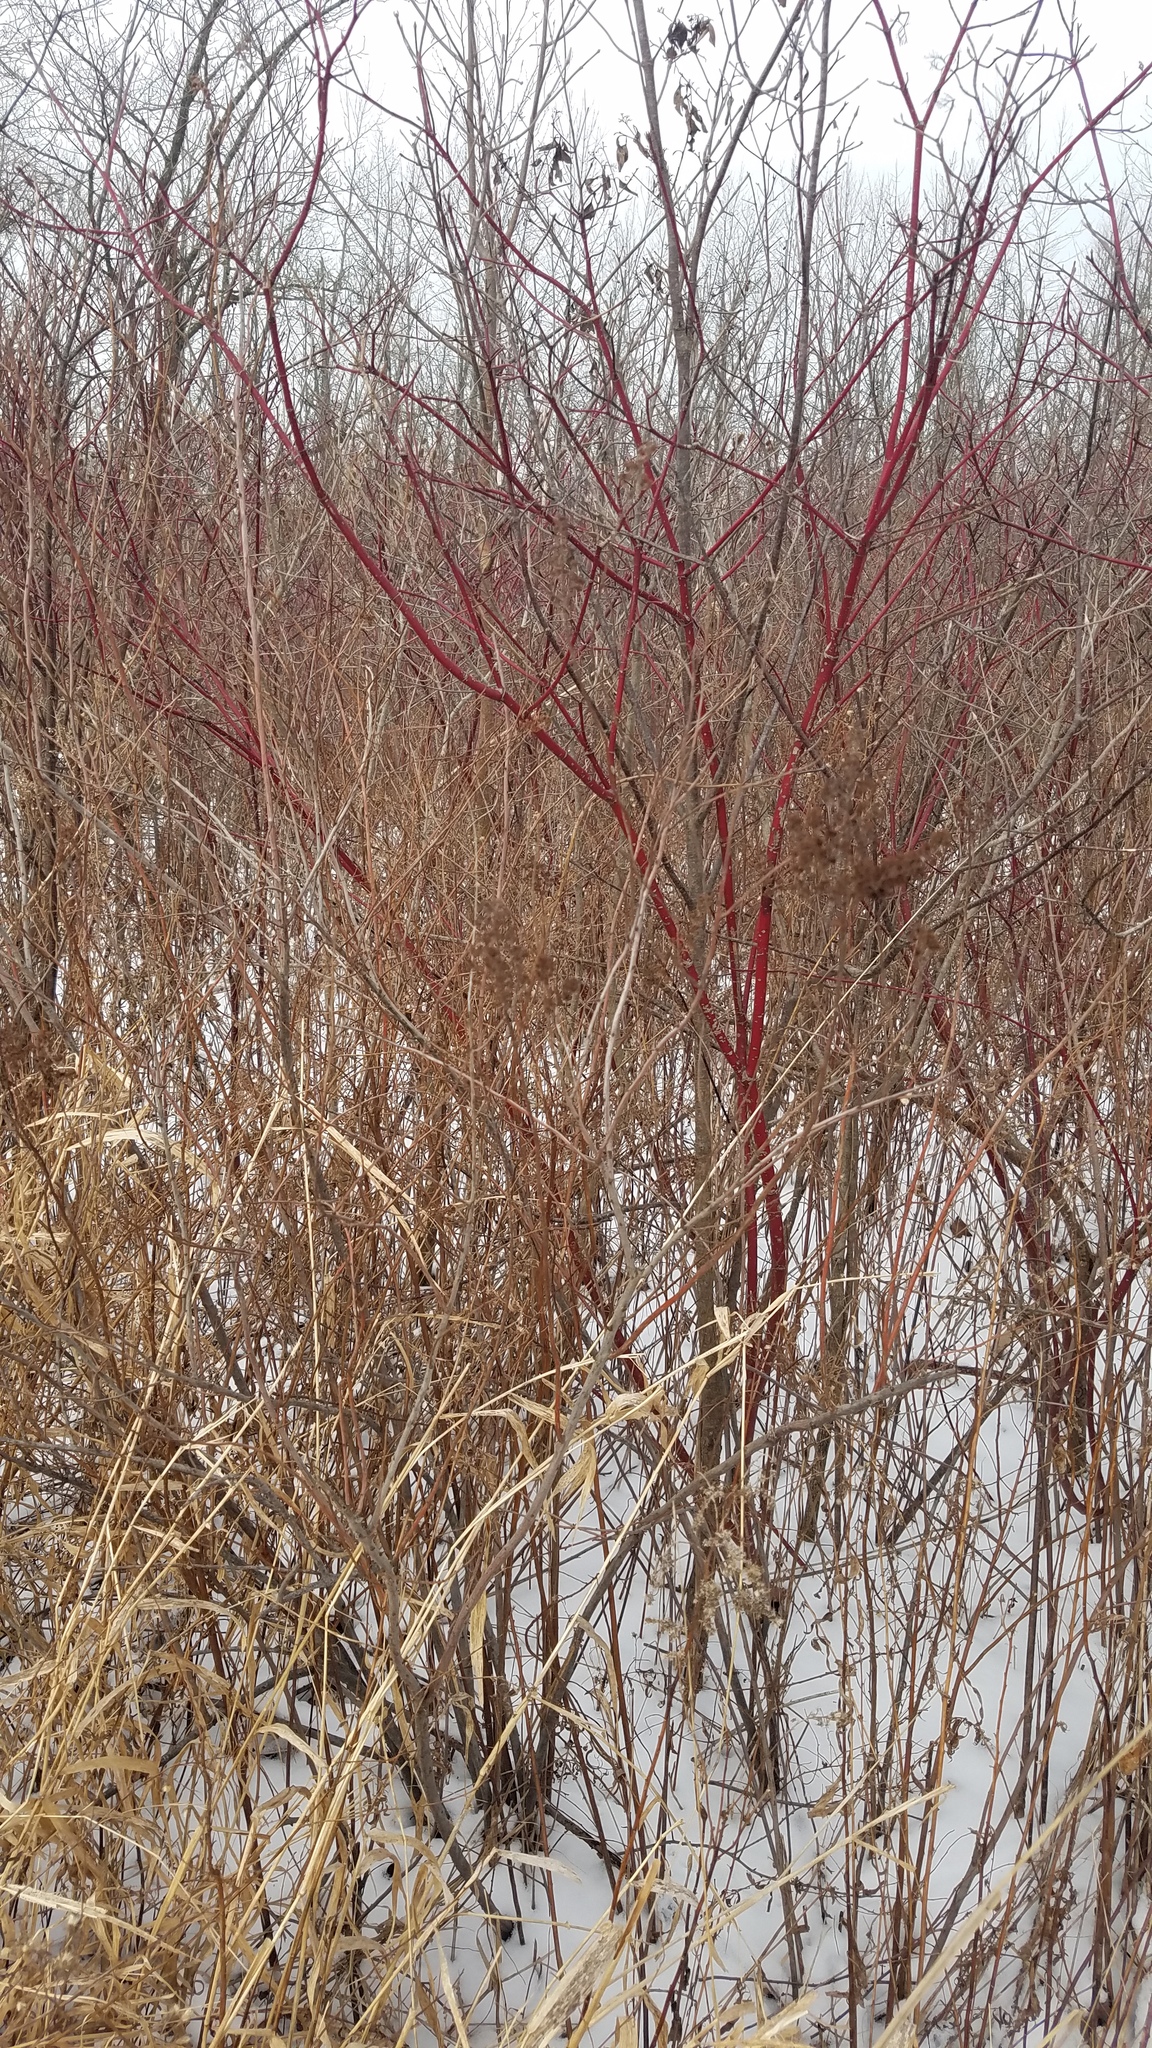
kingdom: Plantae
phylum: Tracheophyta
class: Magnoliopsida
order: Cornales
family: Cornaceae
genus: Cornus
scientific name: Cornus sericea
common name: Red-osier dogwood
